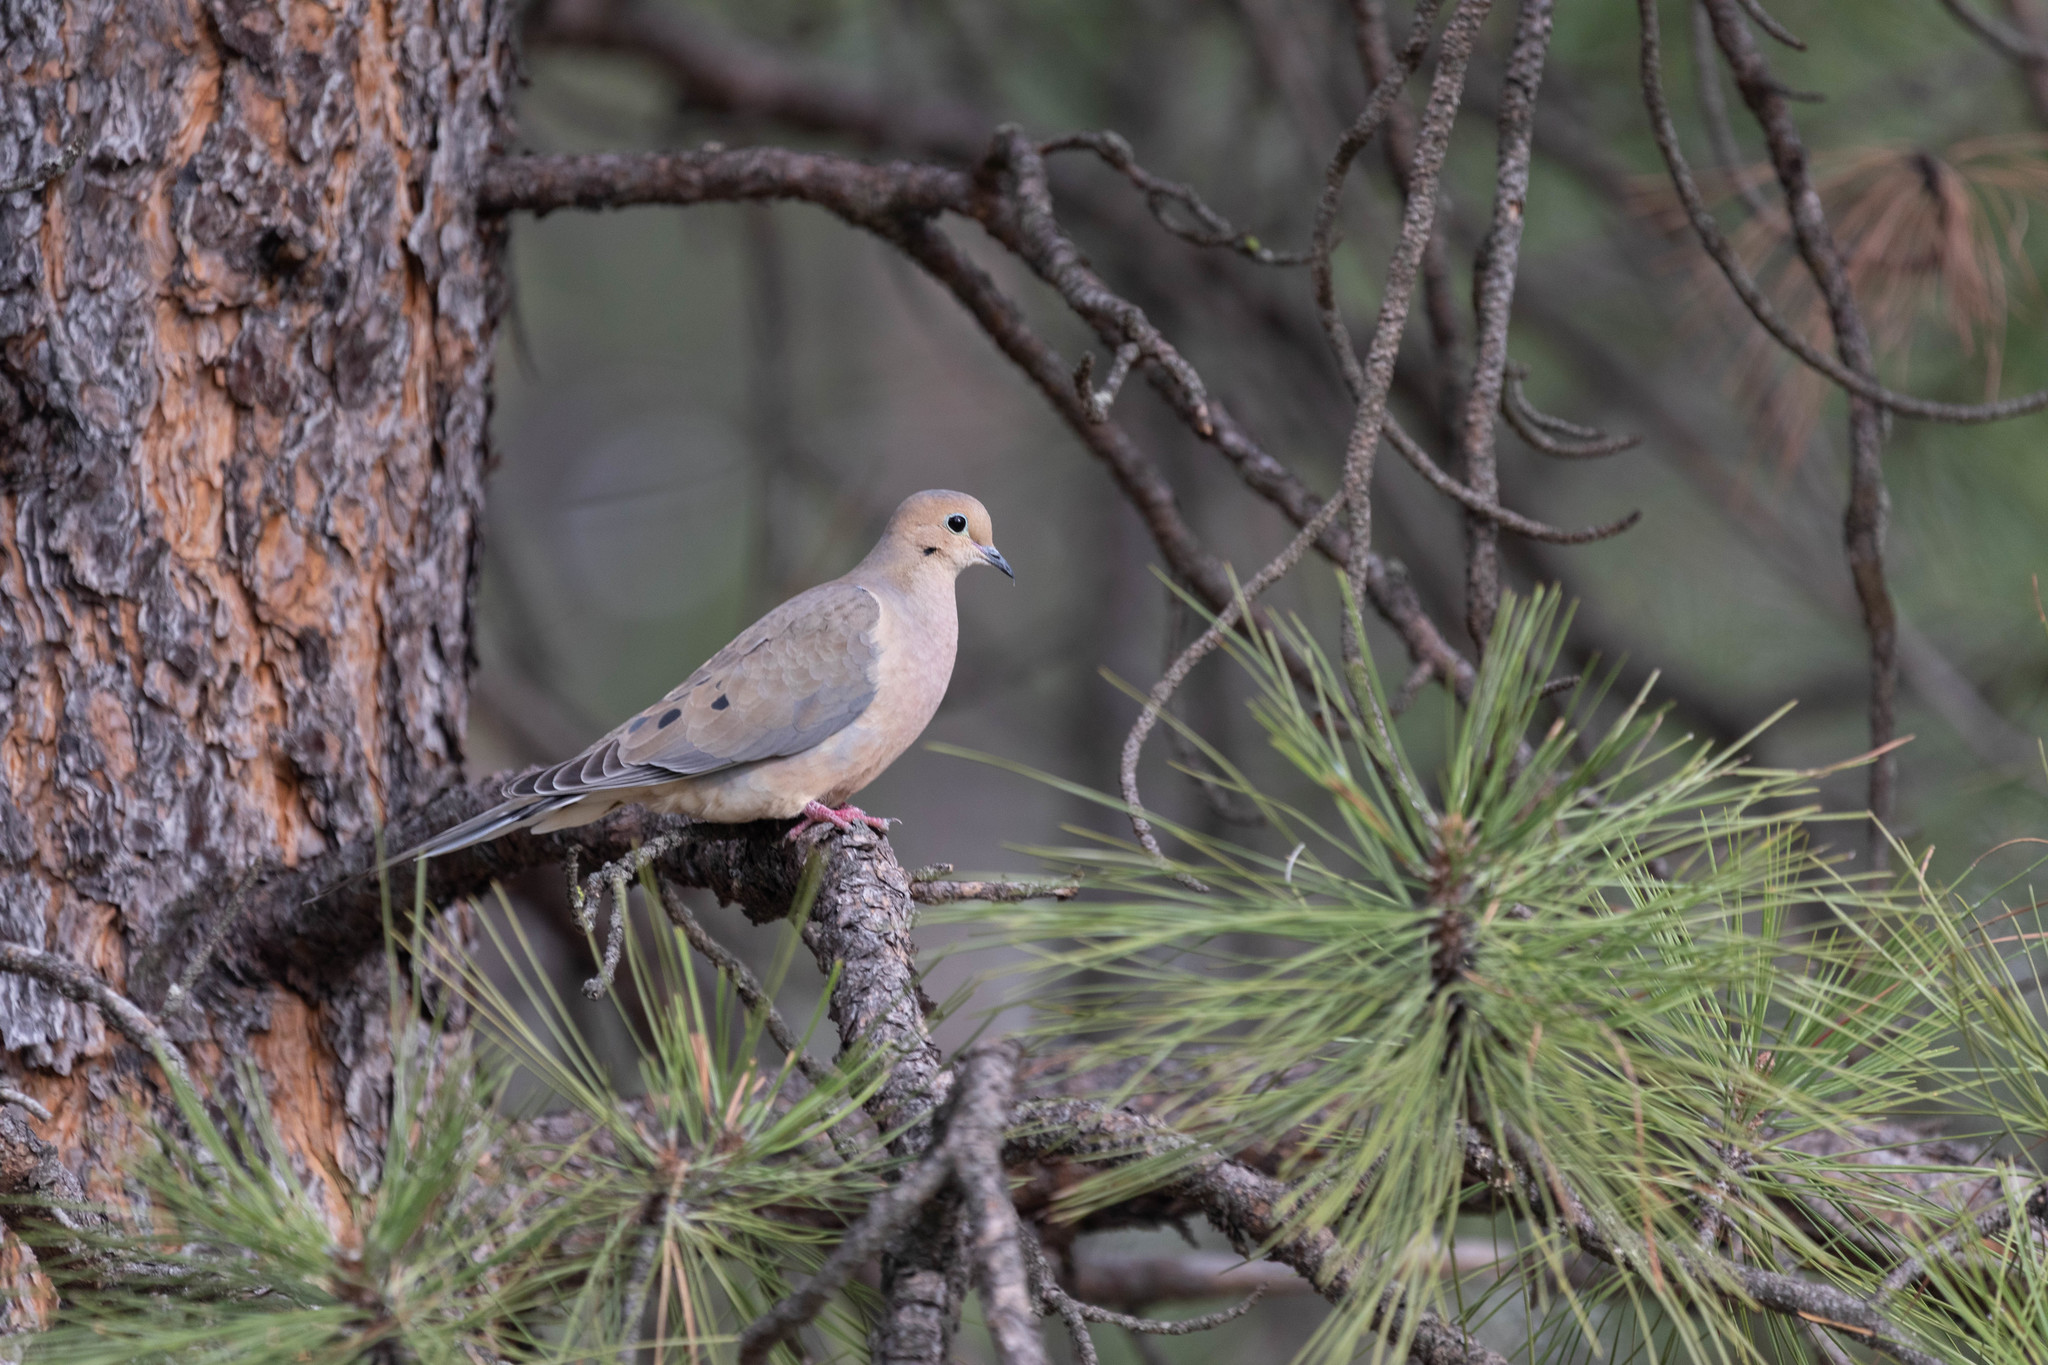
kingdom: Animalia
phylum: Chordata
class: Aves
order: Columbiformes
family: Columbidae
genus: Zenaida
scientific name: Zenaida macroura
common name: Mourning dove
